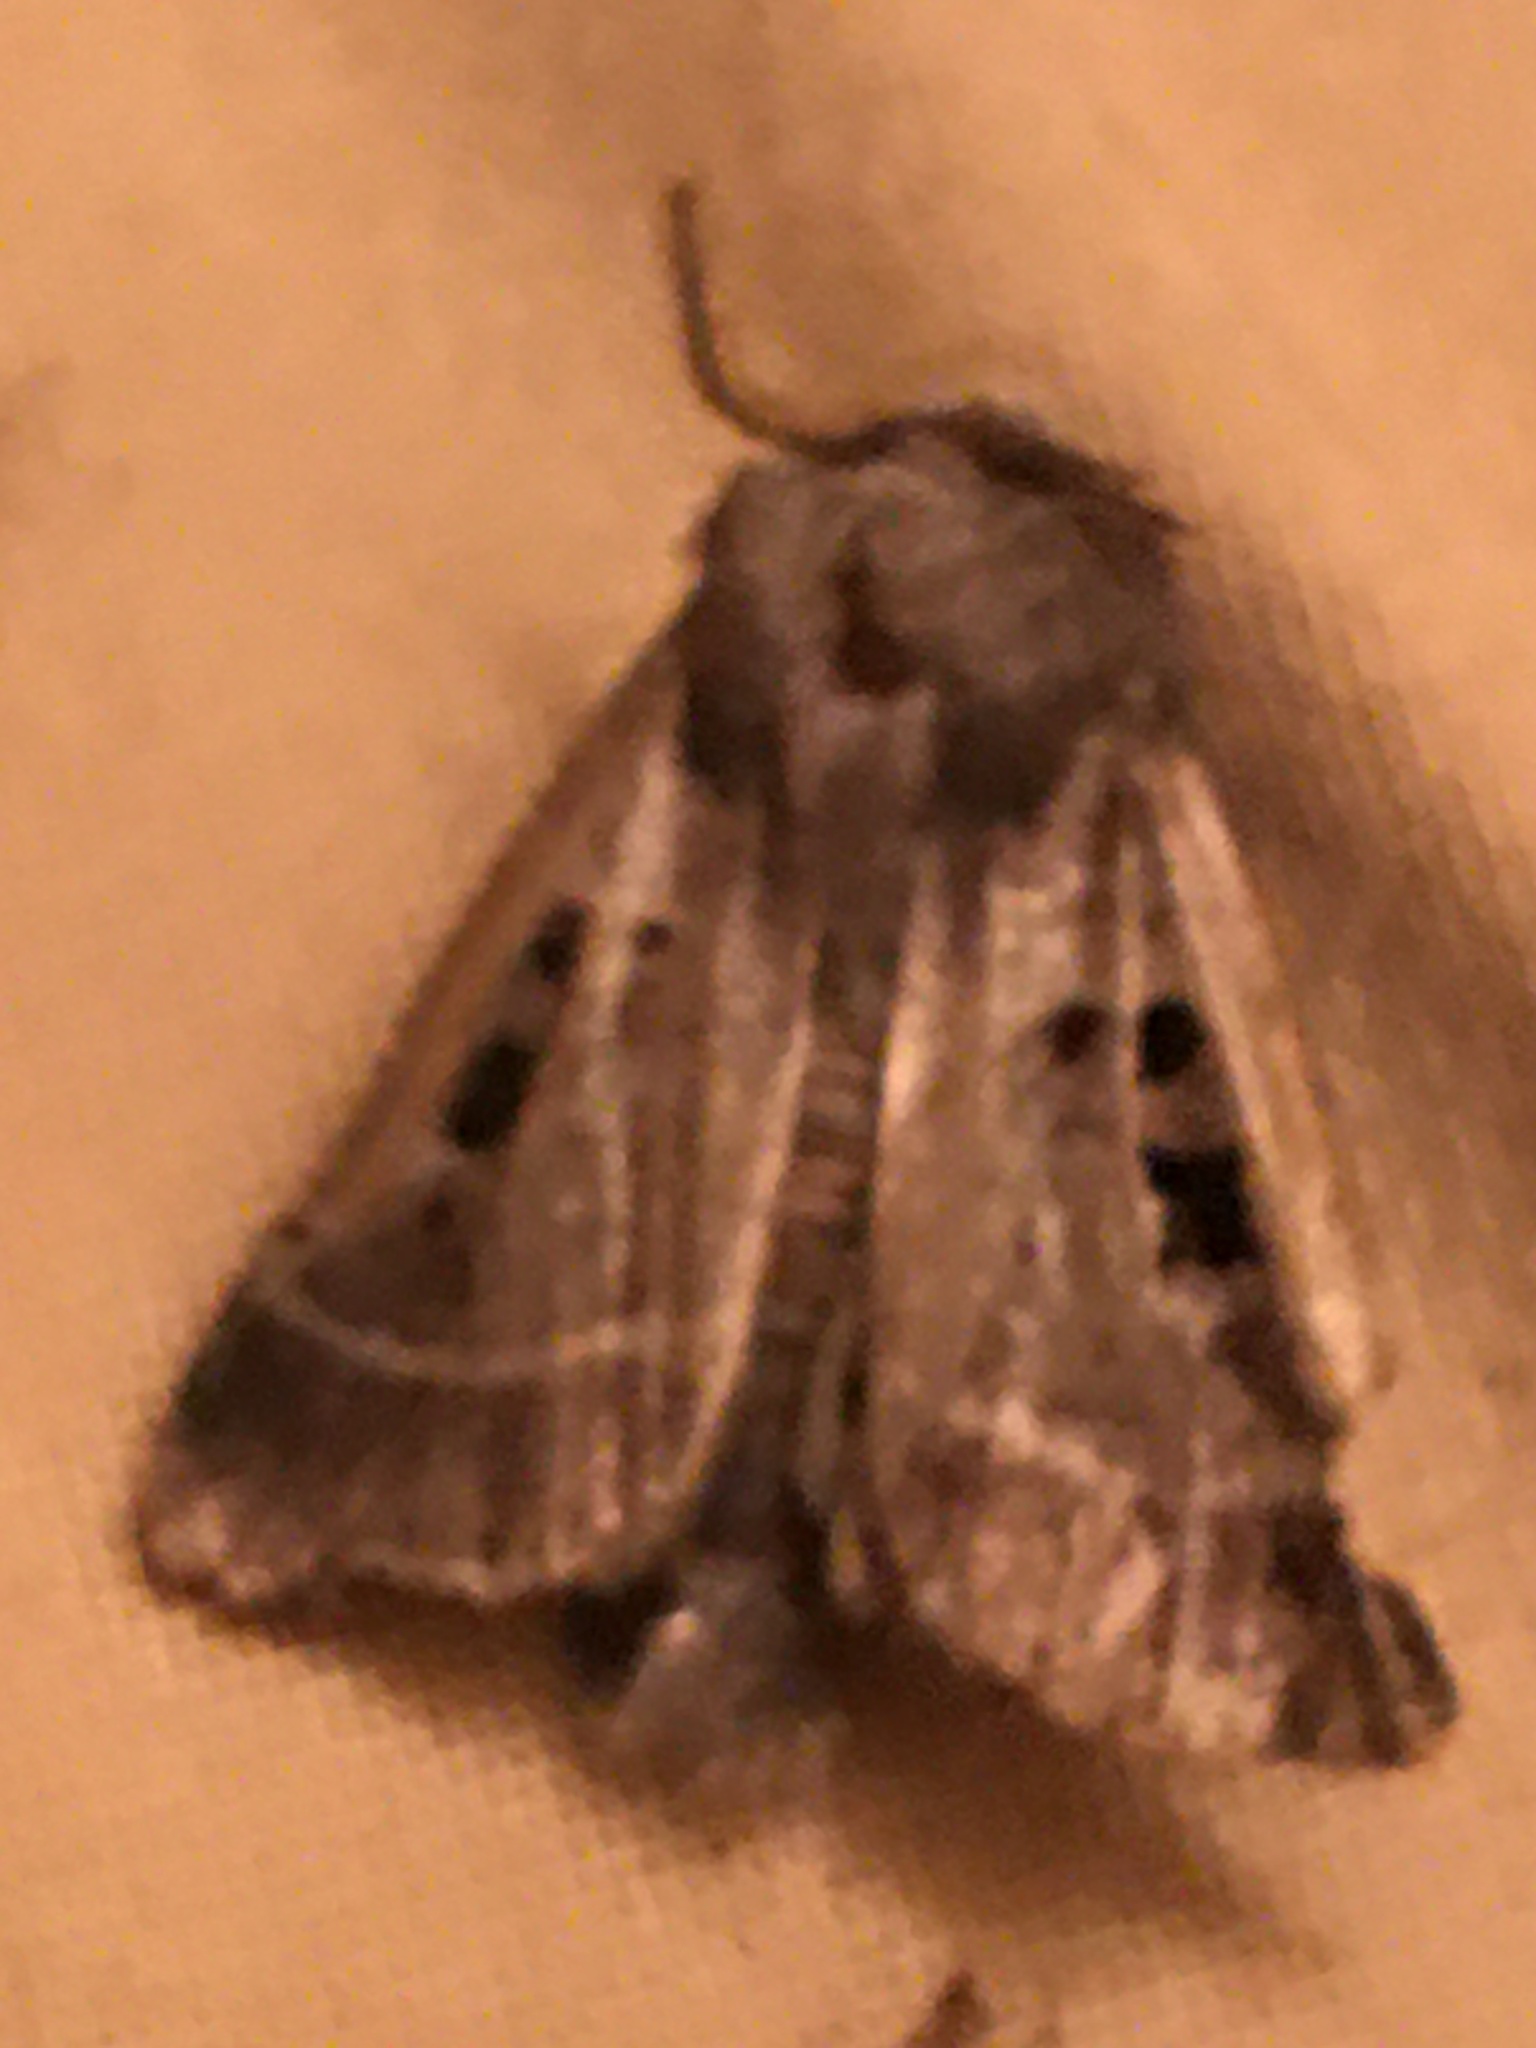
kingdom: Animalia
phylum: Arthropoda
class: Insecta
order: Lepidoptera
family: Noctuidae
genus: Agnorisma
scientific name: Agnorisma bollii
